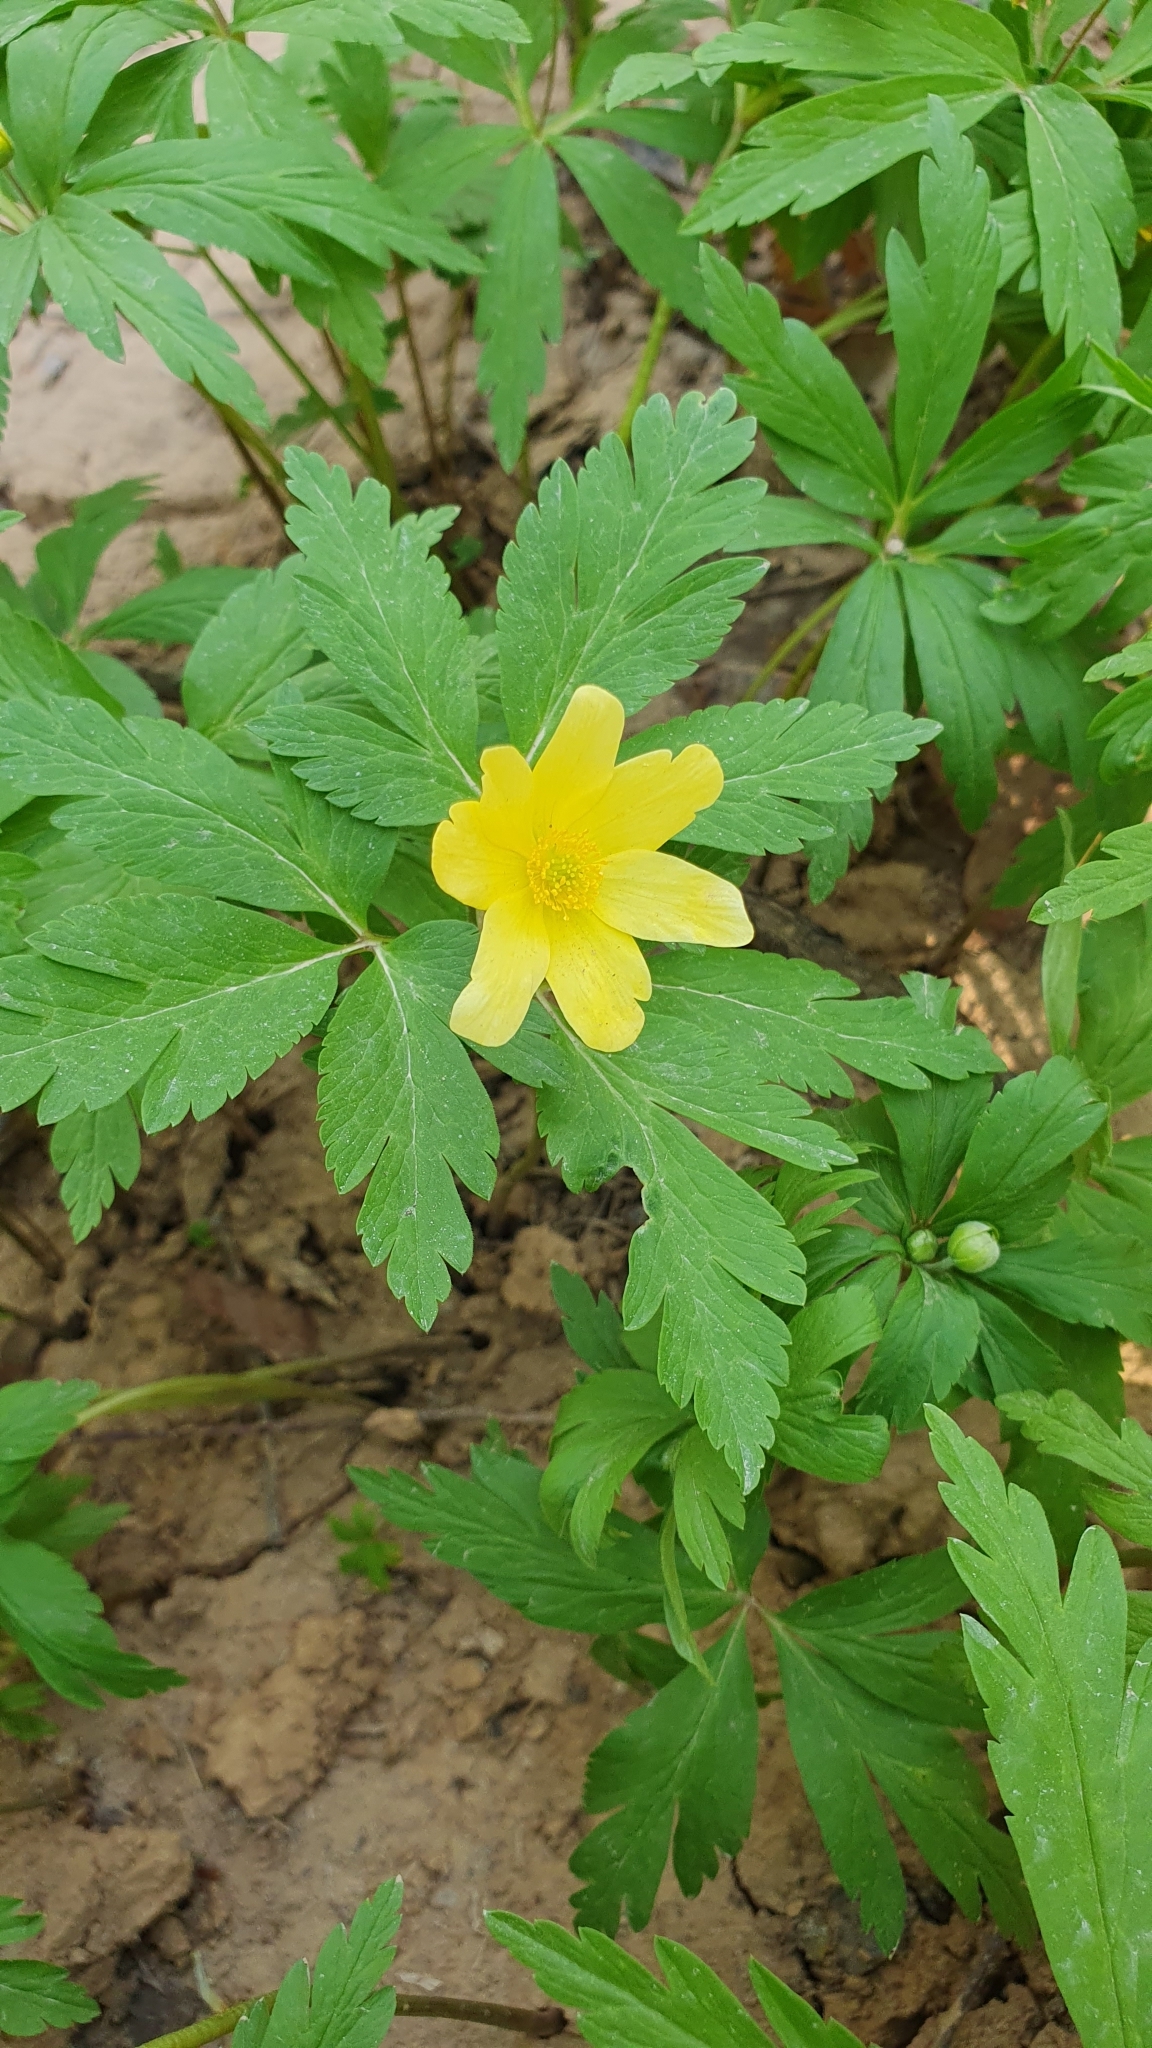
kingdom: Plantae
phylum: Tracheophyta
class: Magnoliopsida
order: Ranunculales
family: Ranunculaceae
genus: Anemone
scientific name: Anemone korzchinskyi
